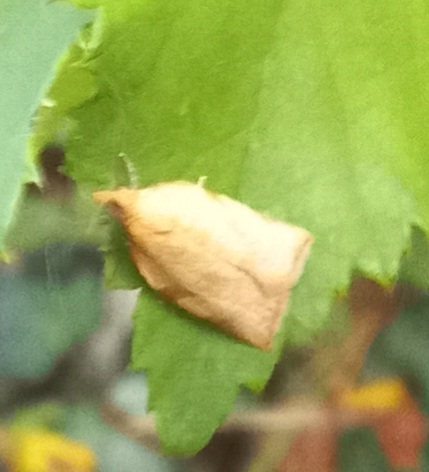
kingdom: Animalia
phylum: Arthropoda
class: Insecta
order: Lepidoptera
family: Tortricidae
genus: Clepsis
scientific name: Clepsis siciliana
